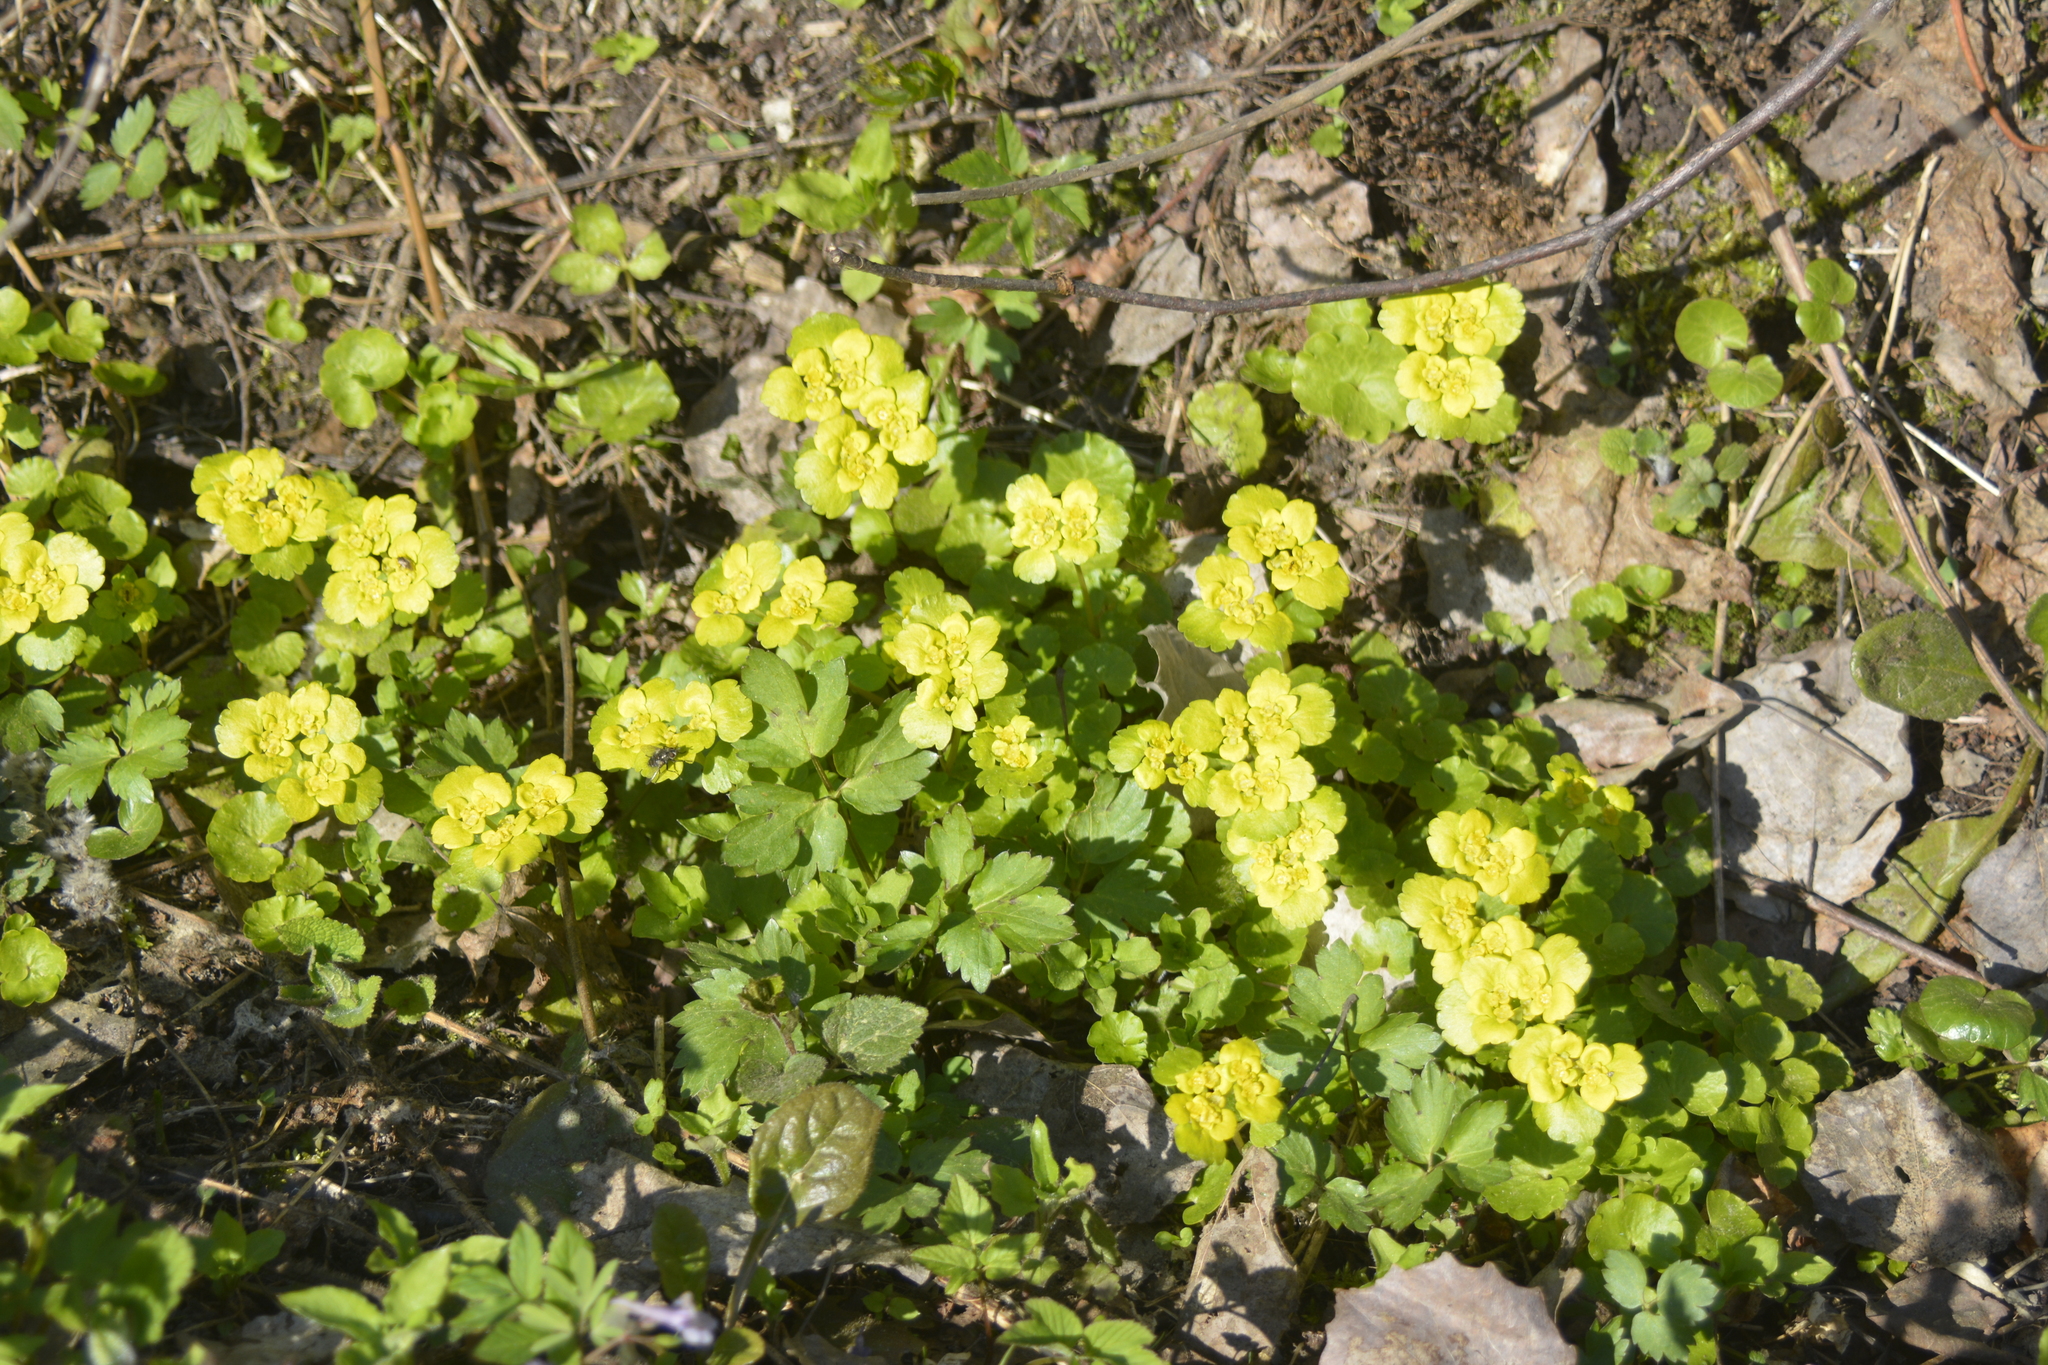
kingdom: Plantae
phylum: Tracheophyta
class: Magnoliopsida
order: Saxifragales
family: Saxifragaceae
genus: Chrysosplenium
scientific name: Chrysosplenium alternifolium
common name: Alternate-leaved golden-saxifrage
